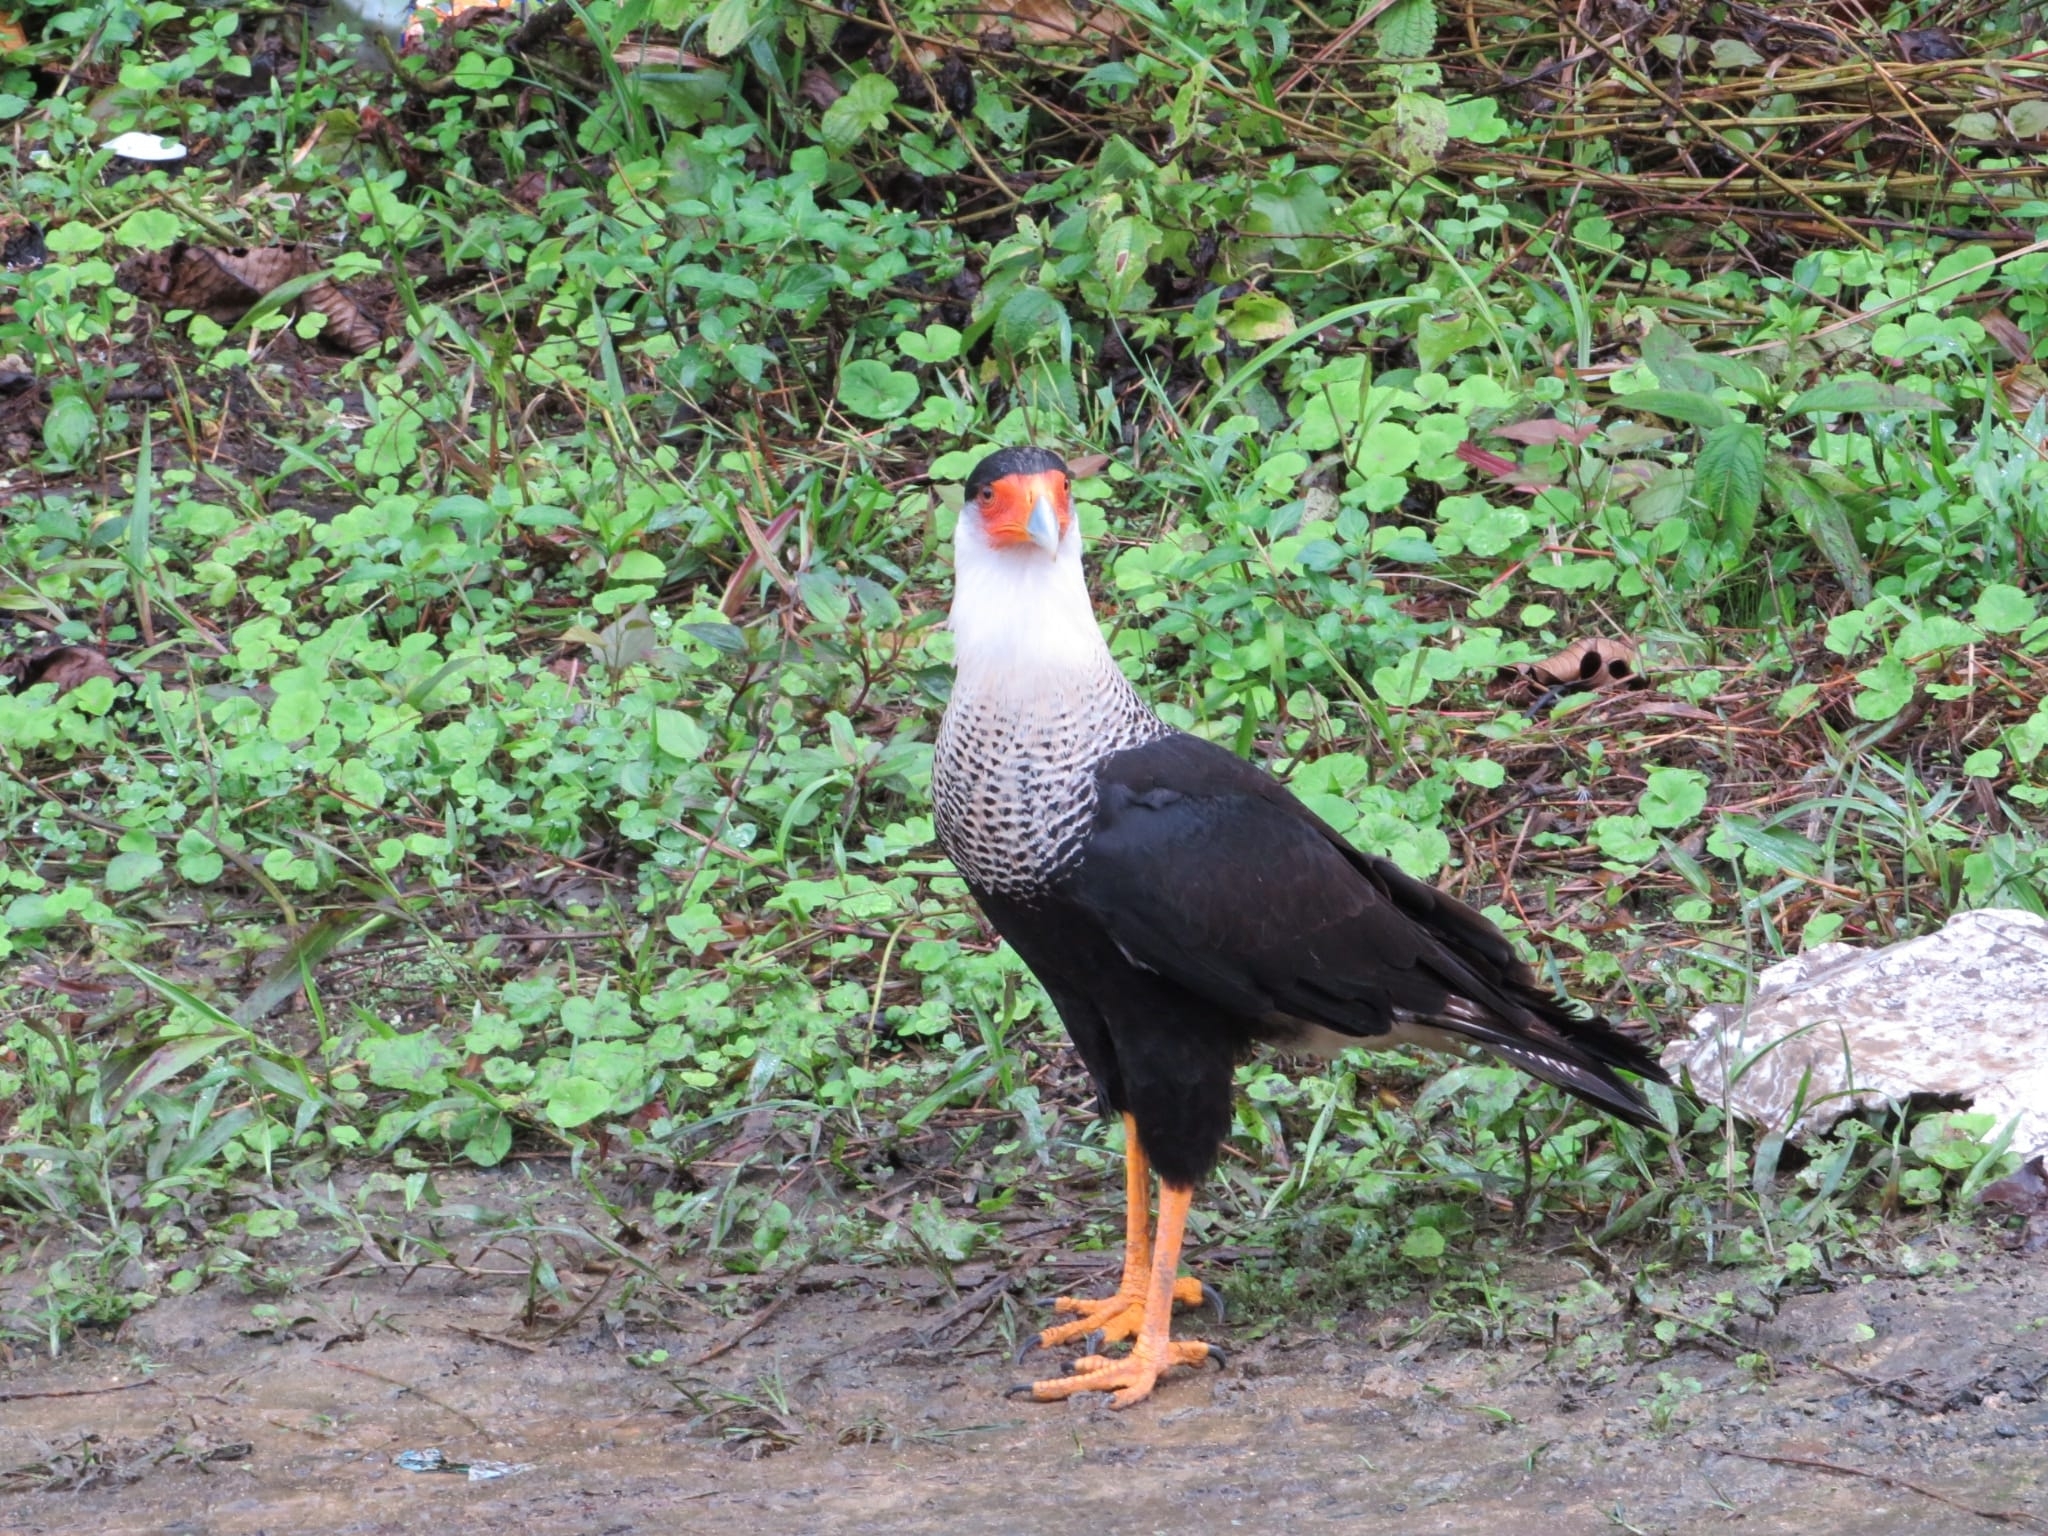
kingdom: Animalia
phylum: Chordata
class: Aves
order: Falconiformes
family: Falconidae
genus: Caracara
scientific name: Caracara plancus
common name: Southern caracara
